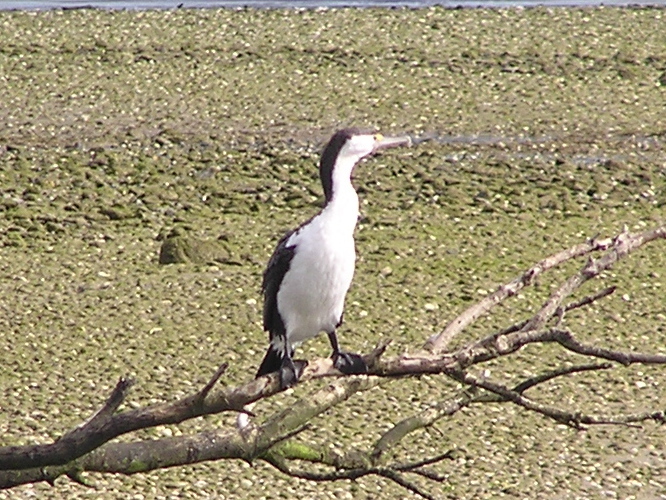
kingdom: Animalia
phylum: Chordata
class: Aves
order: Suliformes
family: Phalacrocoracidae
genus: Phalacrocorax
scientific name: Phalacrocorax varius
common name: Pied cormorant
